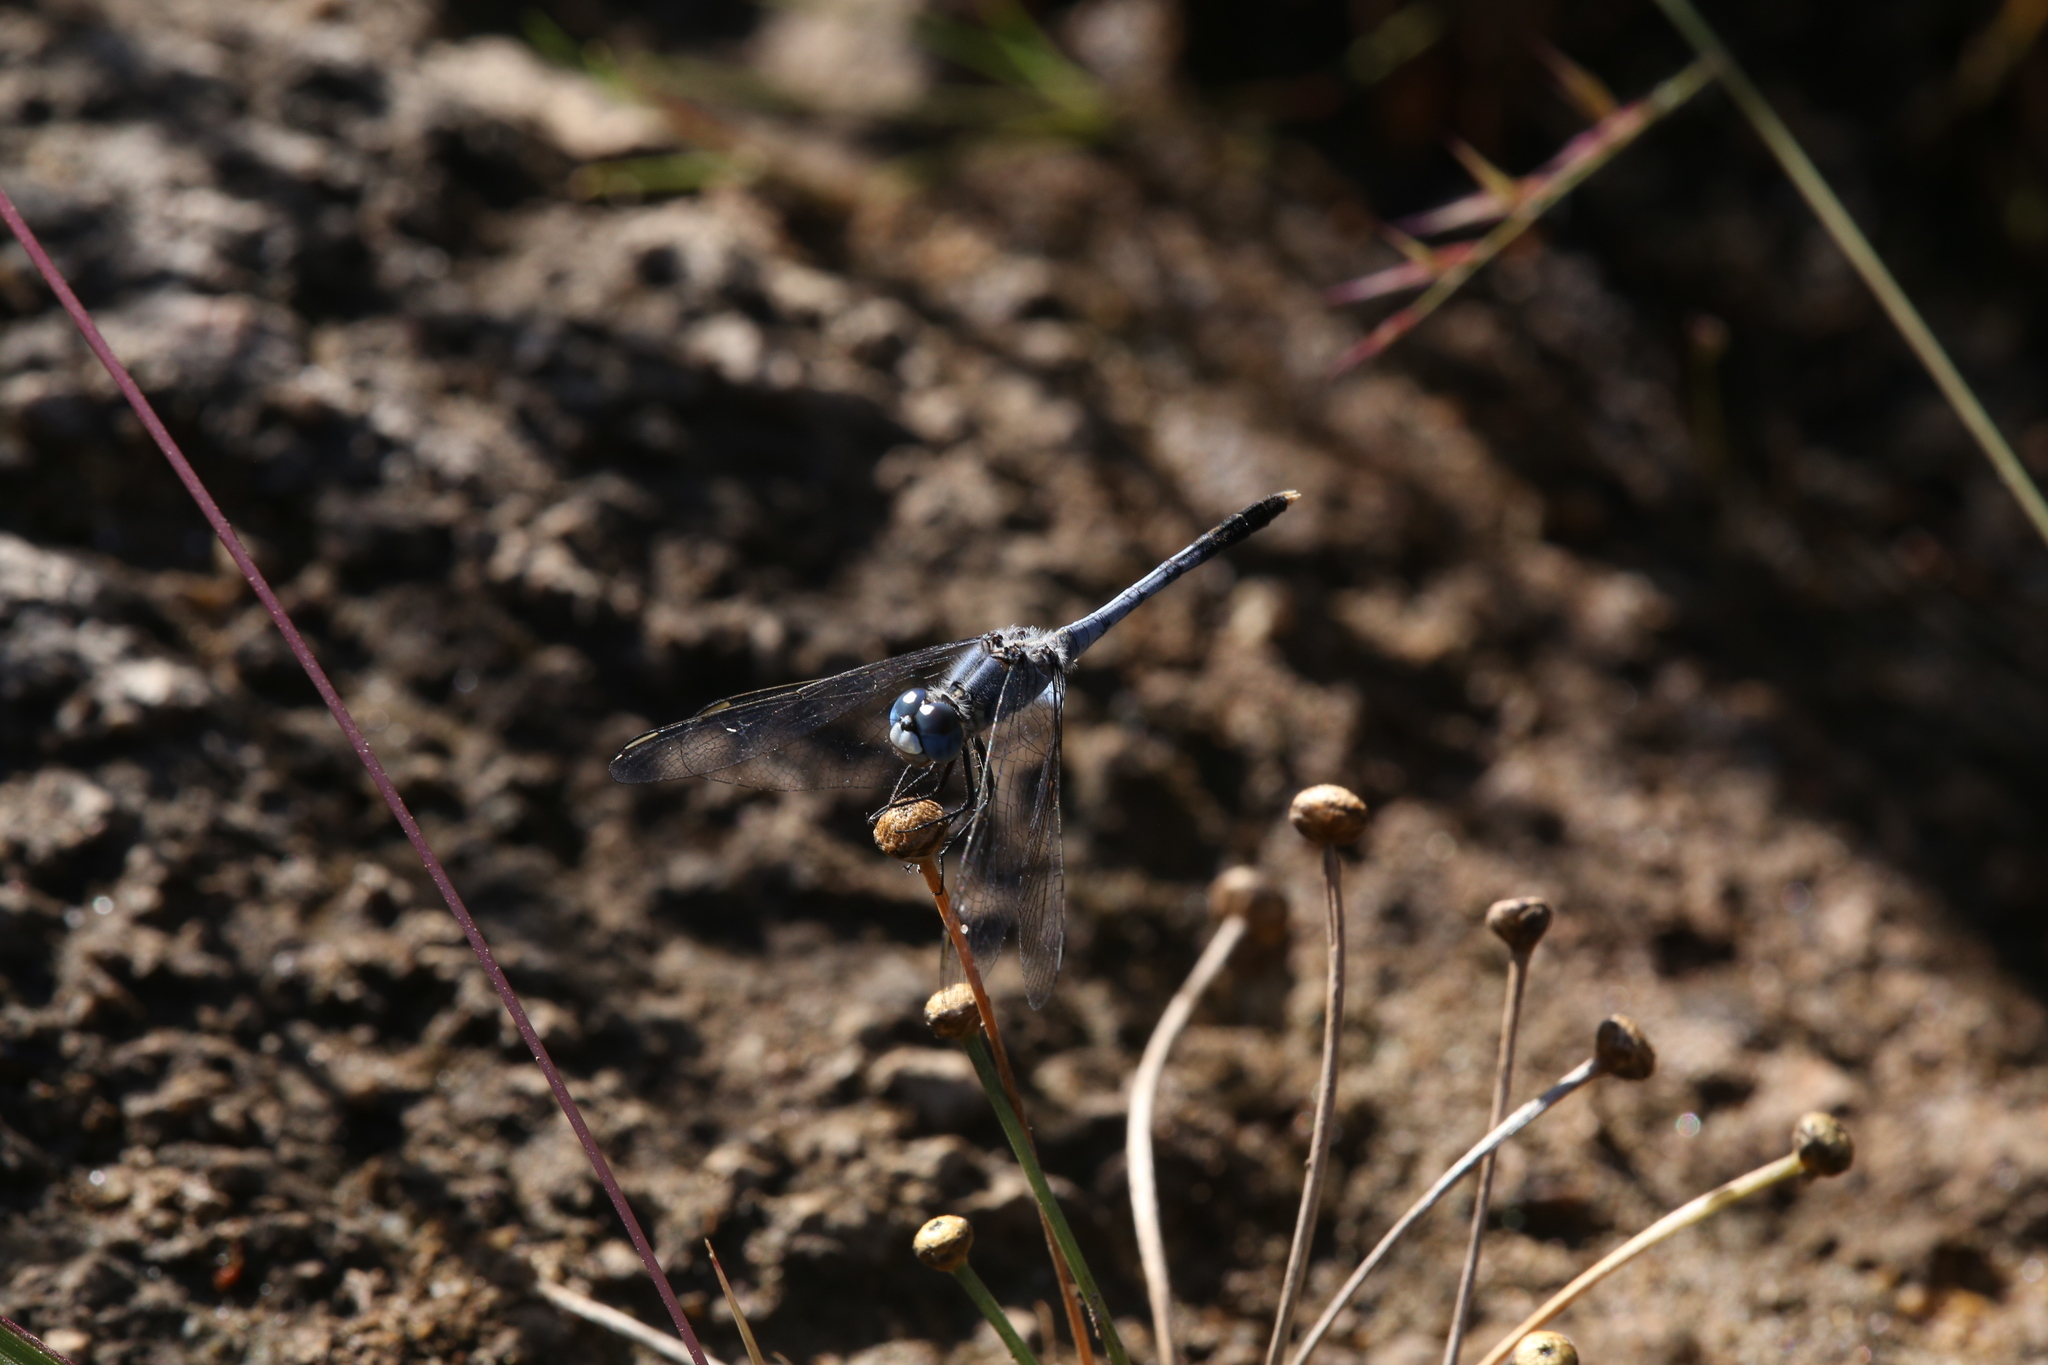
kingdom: Animalia
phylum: Arthropoda
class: Insecta
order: Odonata
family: Libellulidae
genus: Diplacodes
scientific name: Diplacodes trivialis
